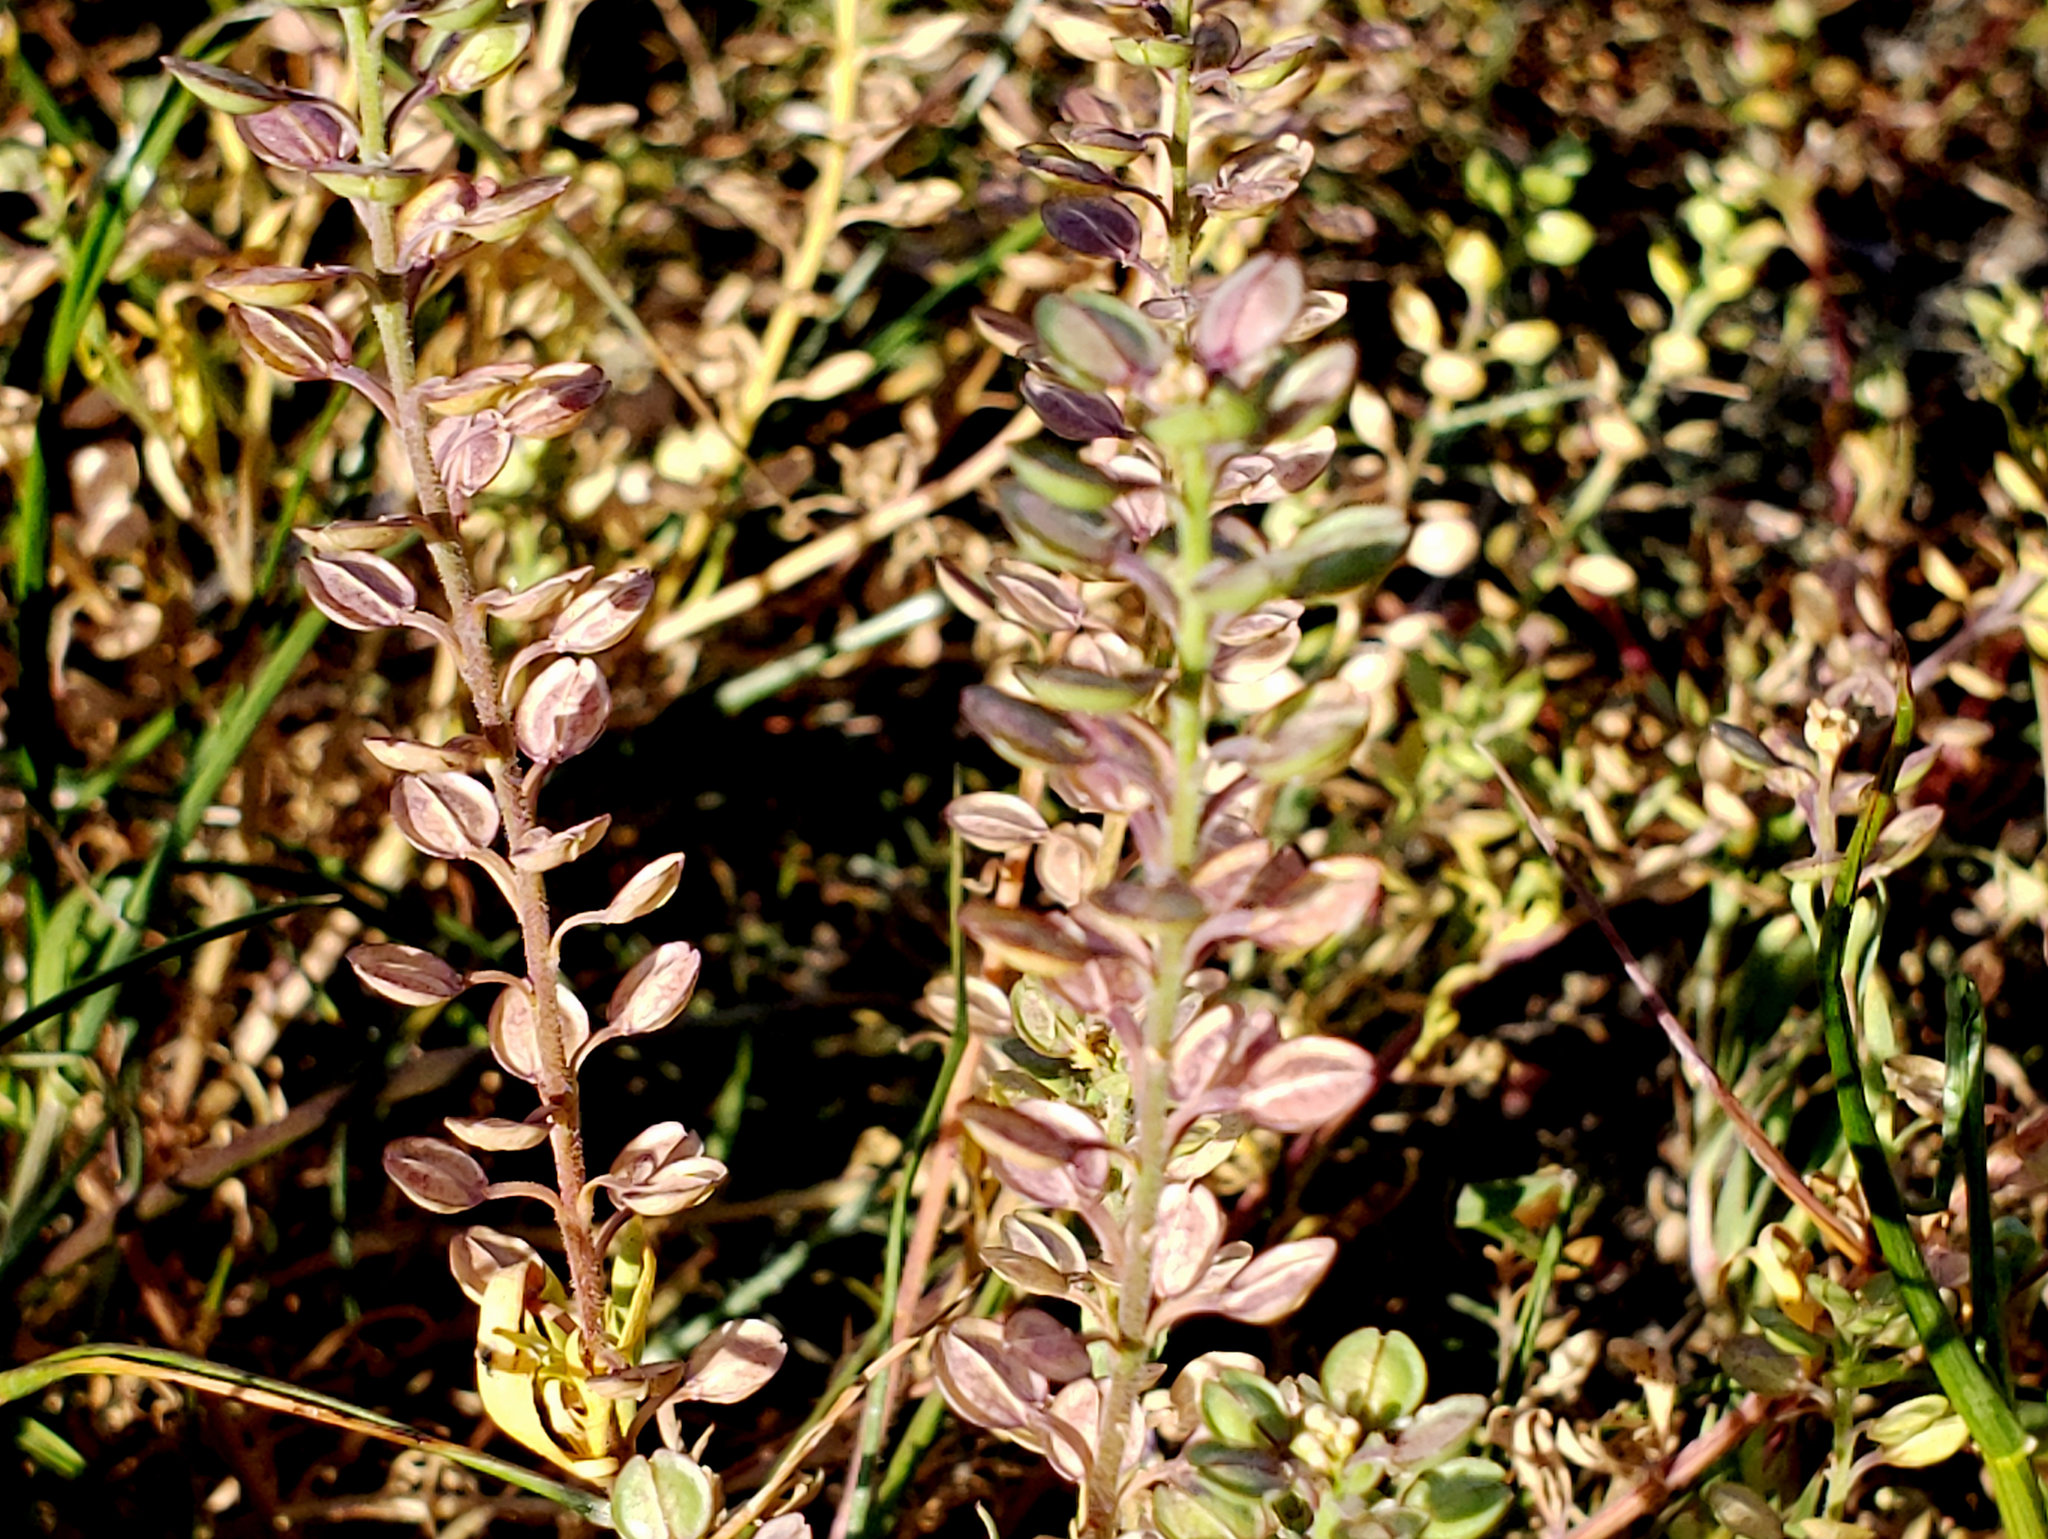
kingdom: Plantae
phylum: Tracheophyta
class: Magnoliopsida
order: Brassicales
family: Brassicaceae
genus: Lepidium
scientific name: Lepidium nitidum
